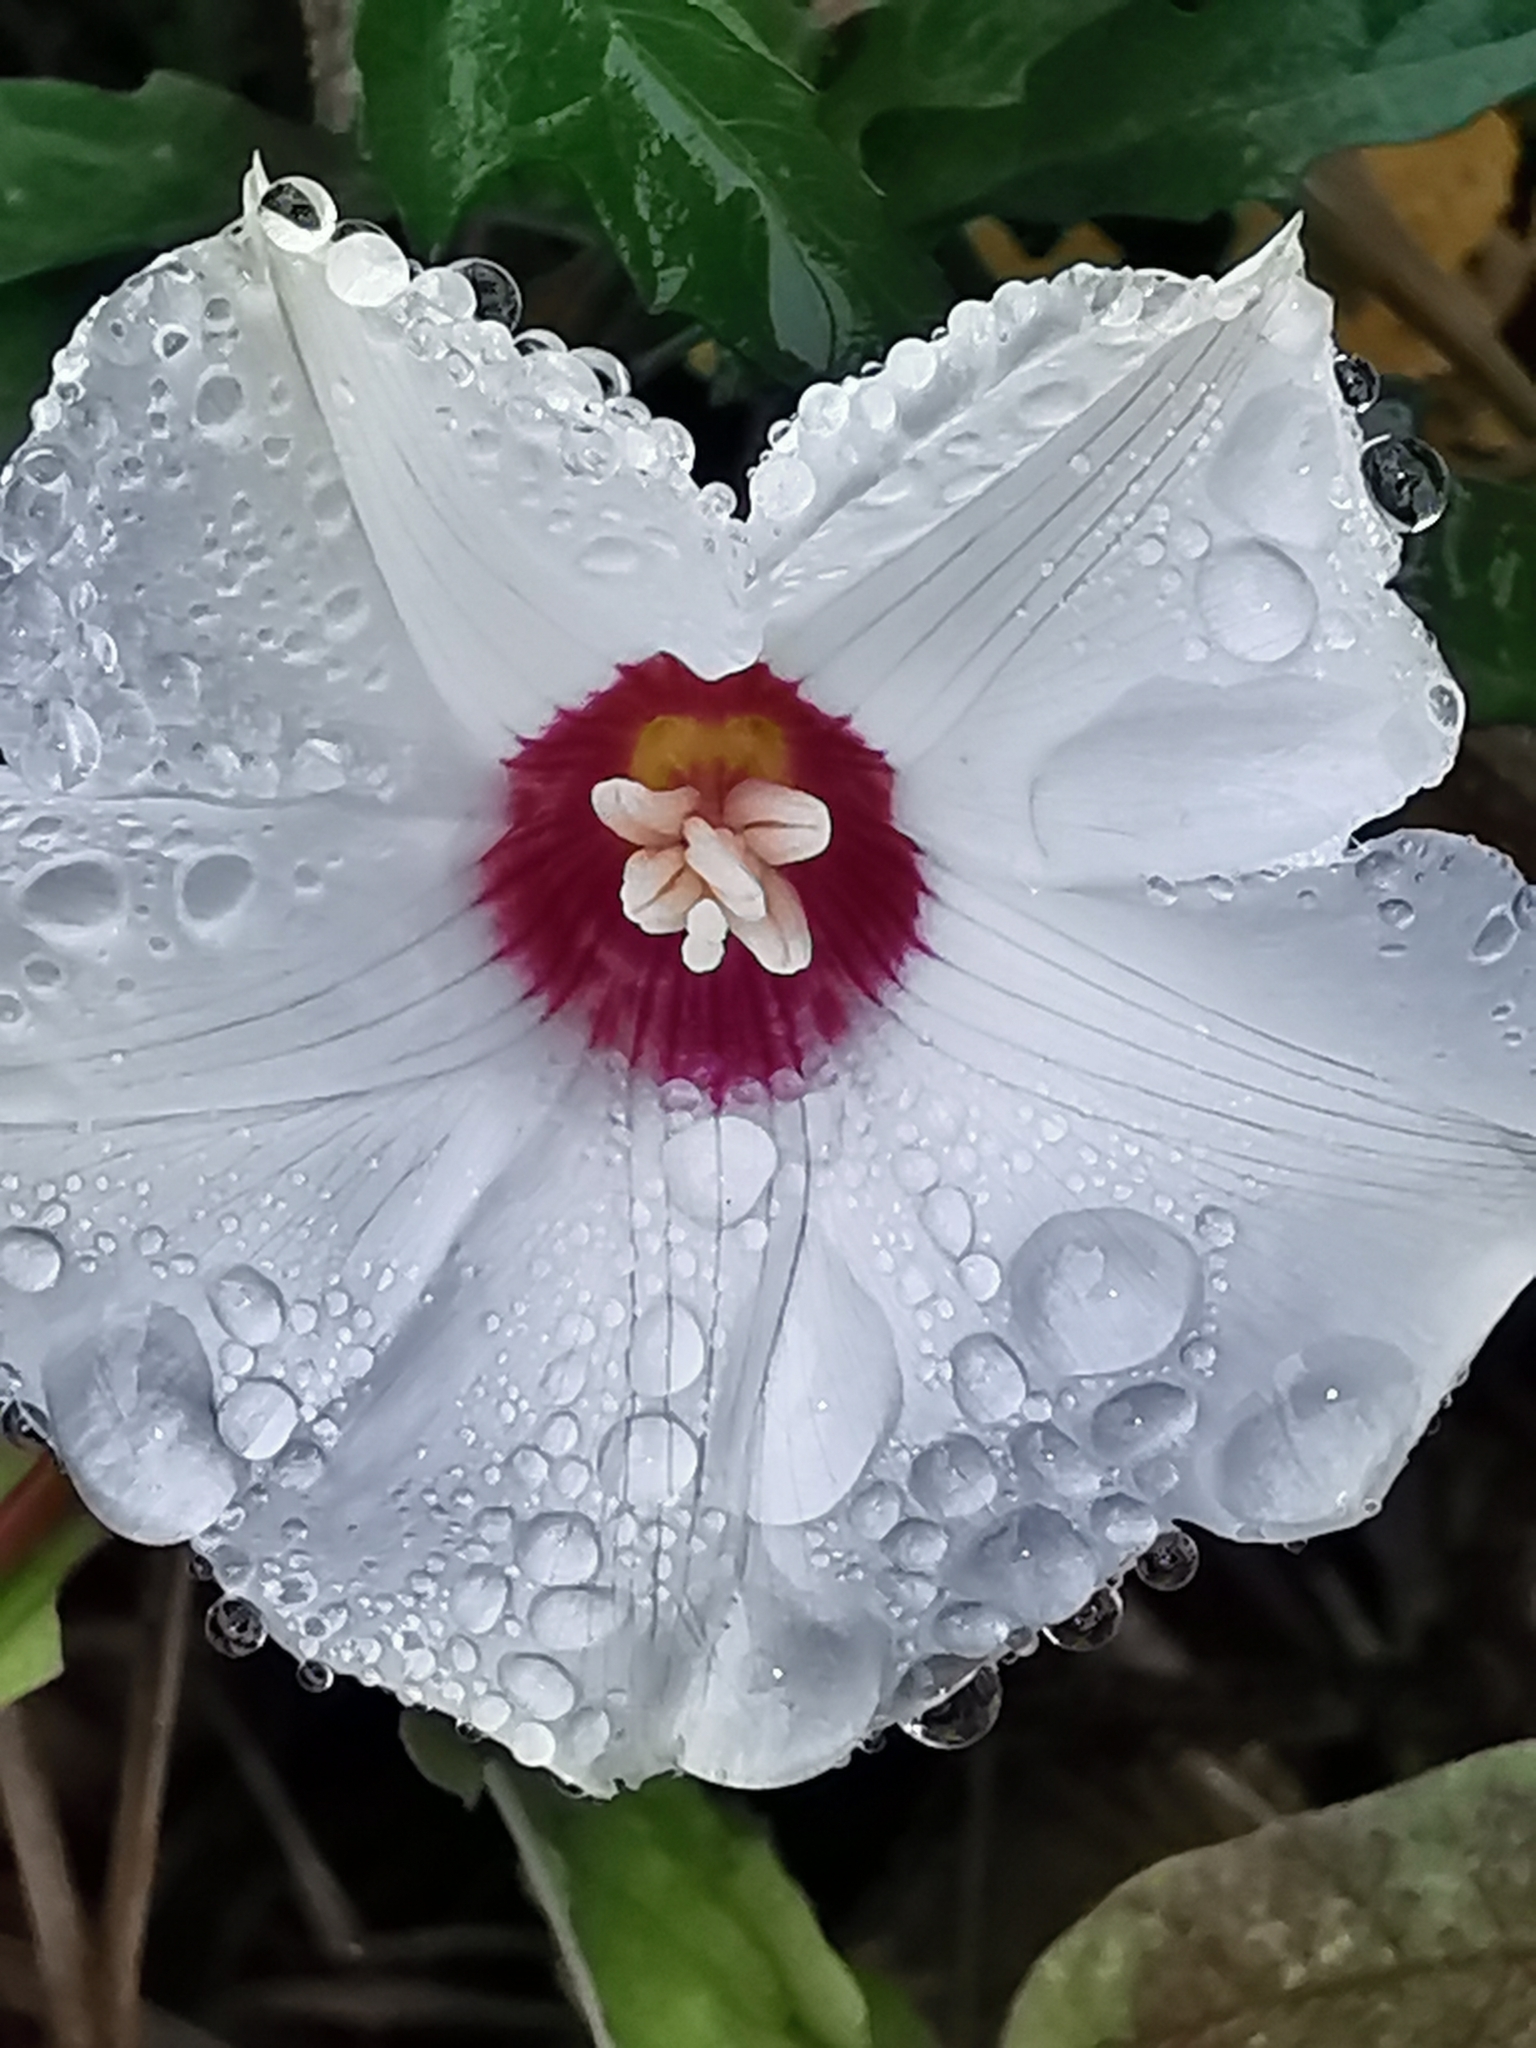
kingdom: Plantae
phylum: Tracheophyta
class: Magnoliopsida
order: Solanales
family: Convolvulaceae
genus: Distimake
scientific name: Distimake dissectus
